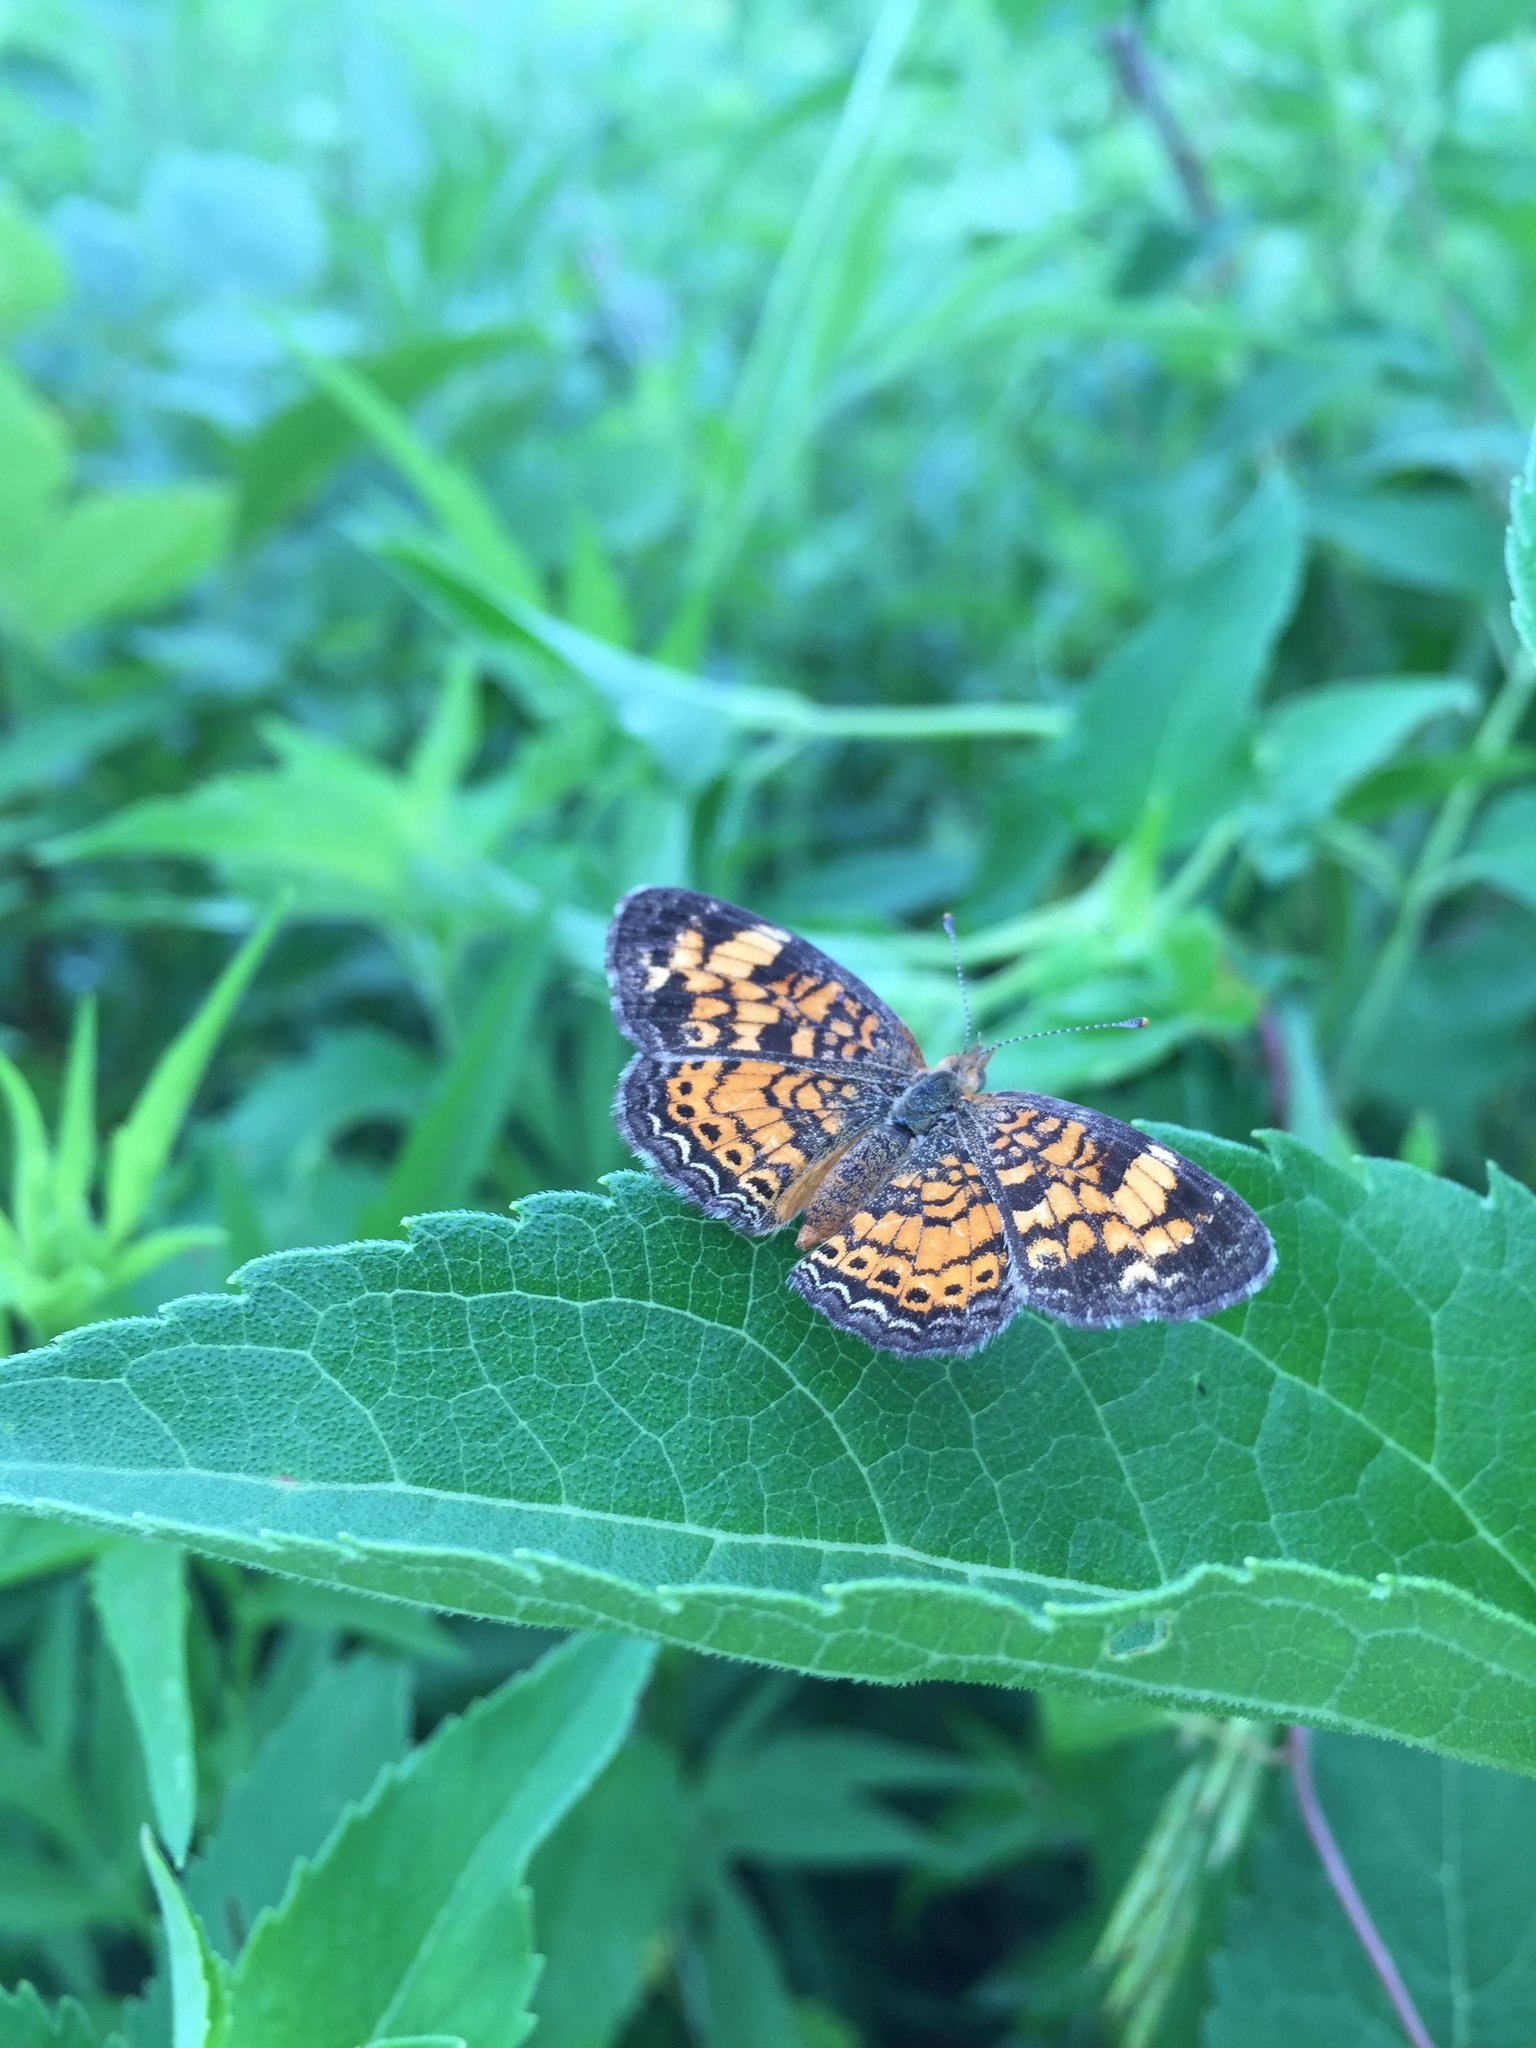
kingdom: Animalia
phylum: Arthropoda
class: Insecta
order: Lepidoptera
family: Nymphalidae
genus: Phyciodes
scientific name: Phyciodes tharos
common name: Pearl crescent
